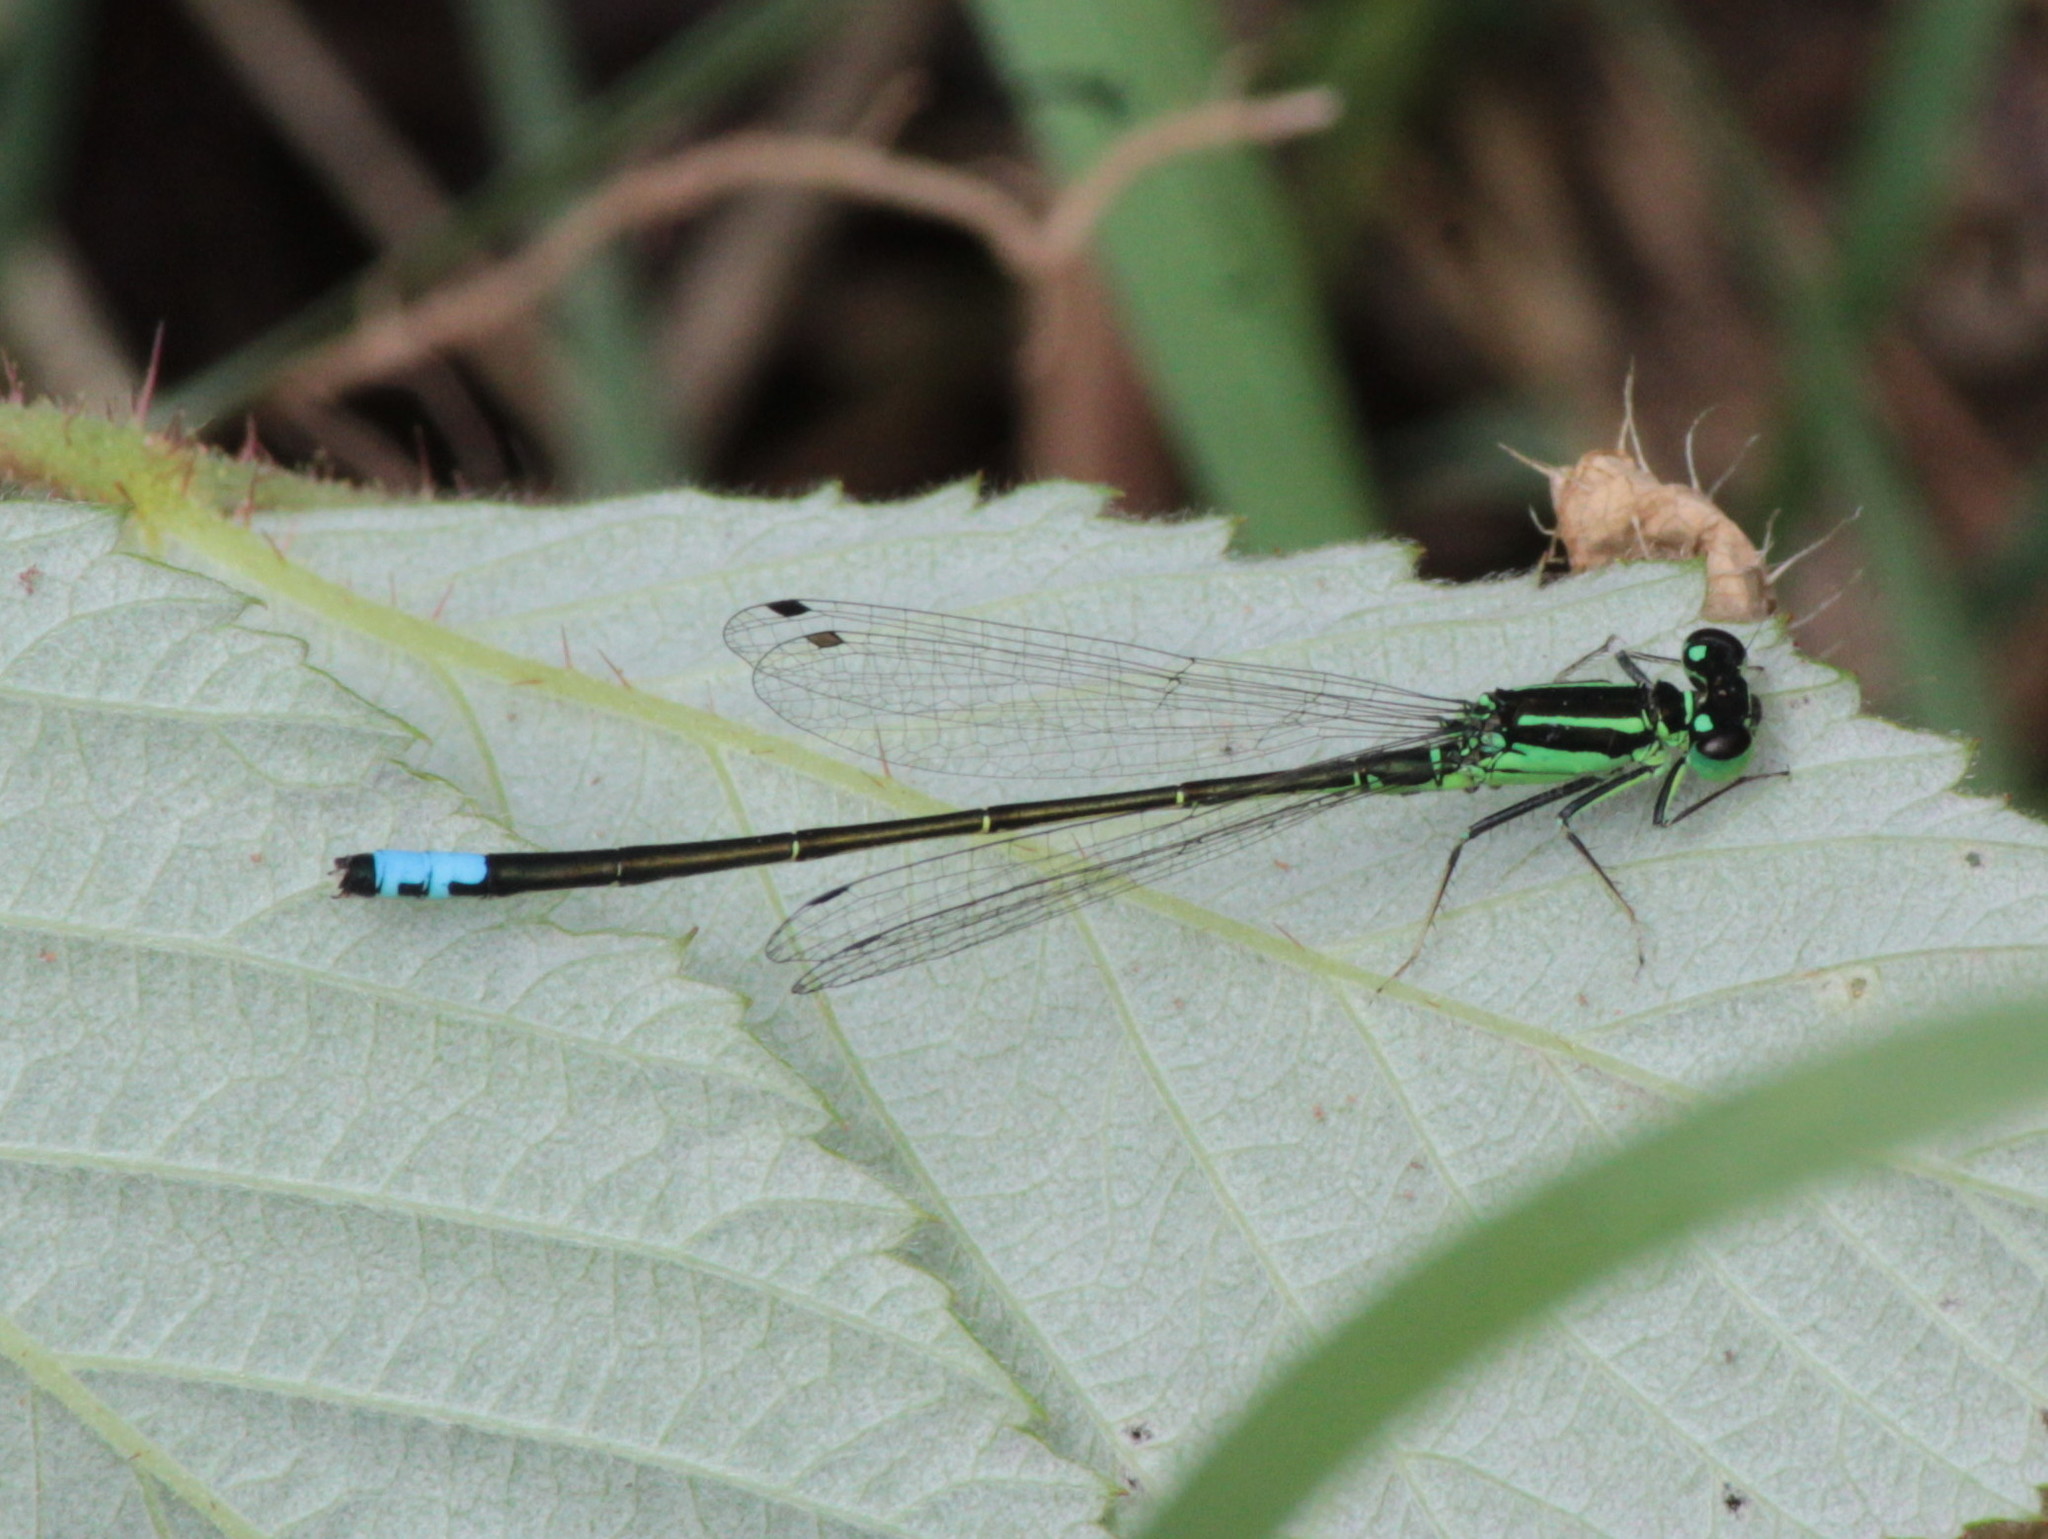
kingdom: Animalia
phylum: Arthropoda
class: Insecta
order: Odonata
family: Coenagrionidae
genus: Ischnura
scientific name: Ischnura verticalis
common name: Eastern forktail
